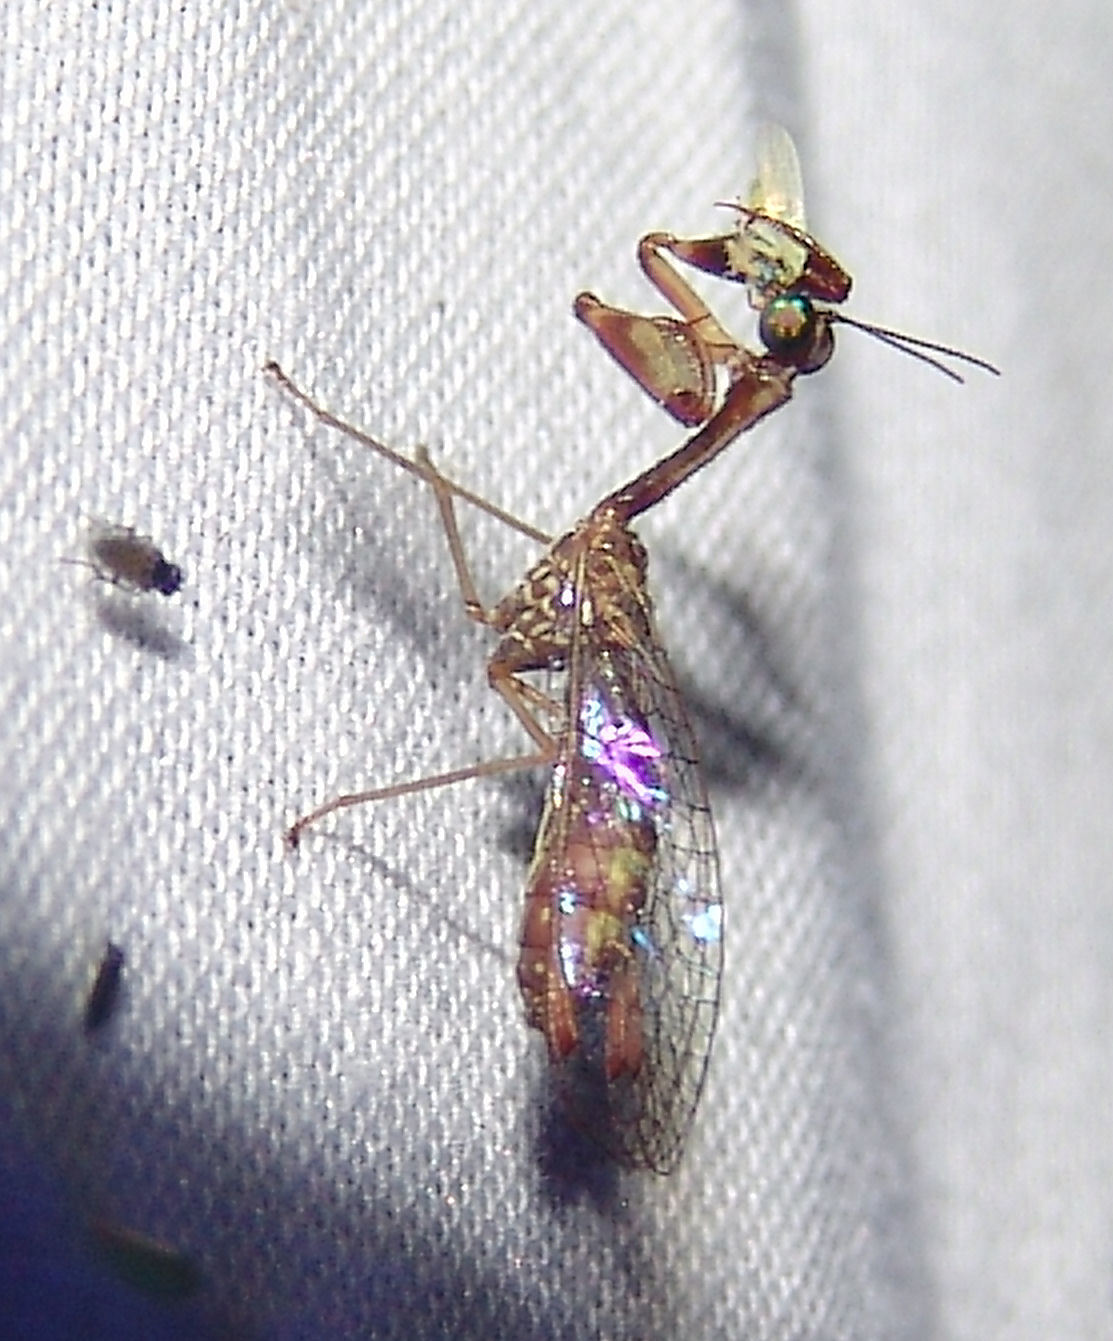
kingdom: Animalia
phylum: Arthropoda
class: Insecta
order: Neuroptera
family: Mantispidae
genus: Leptomantispa
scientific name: Leptomantispa pulchella
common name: Stevens's mantidfly
